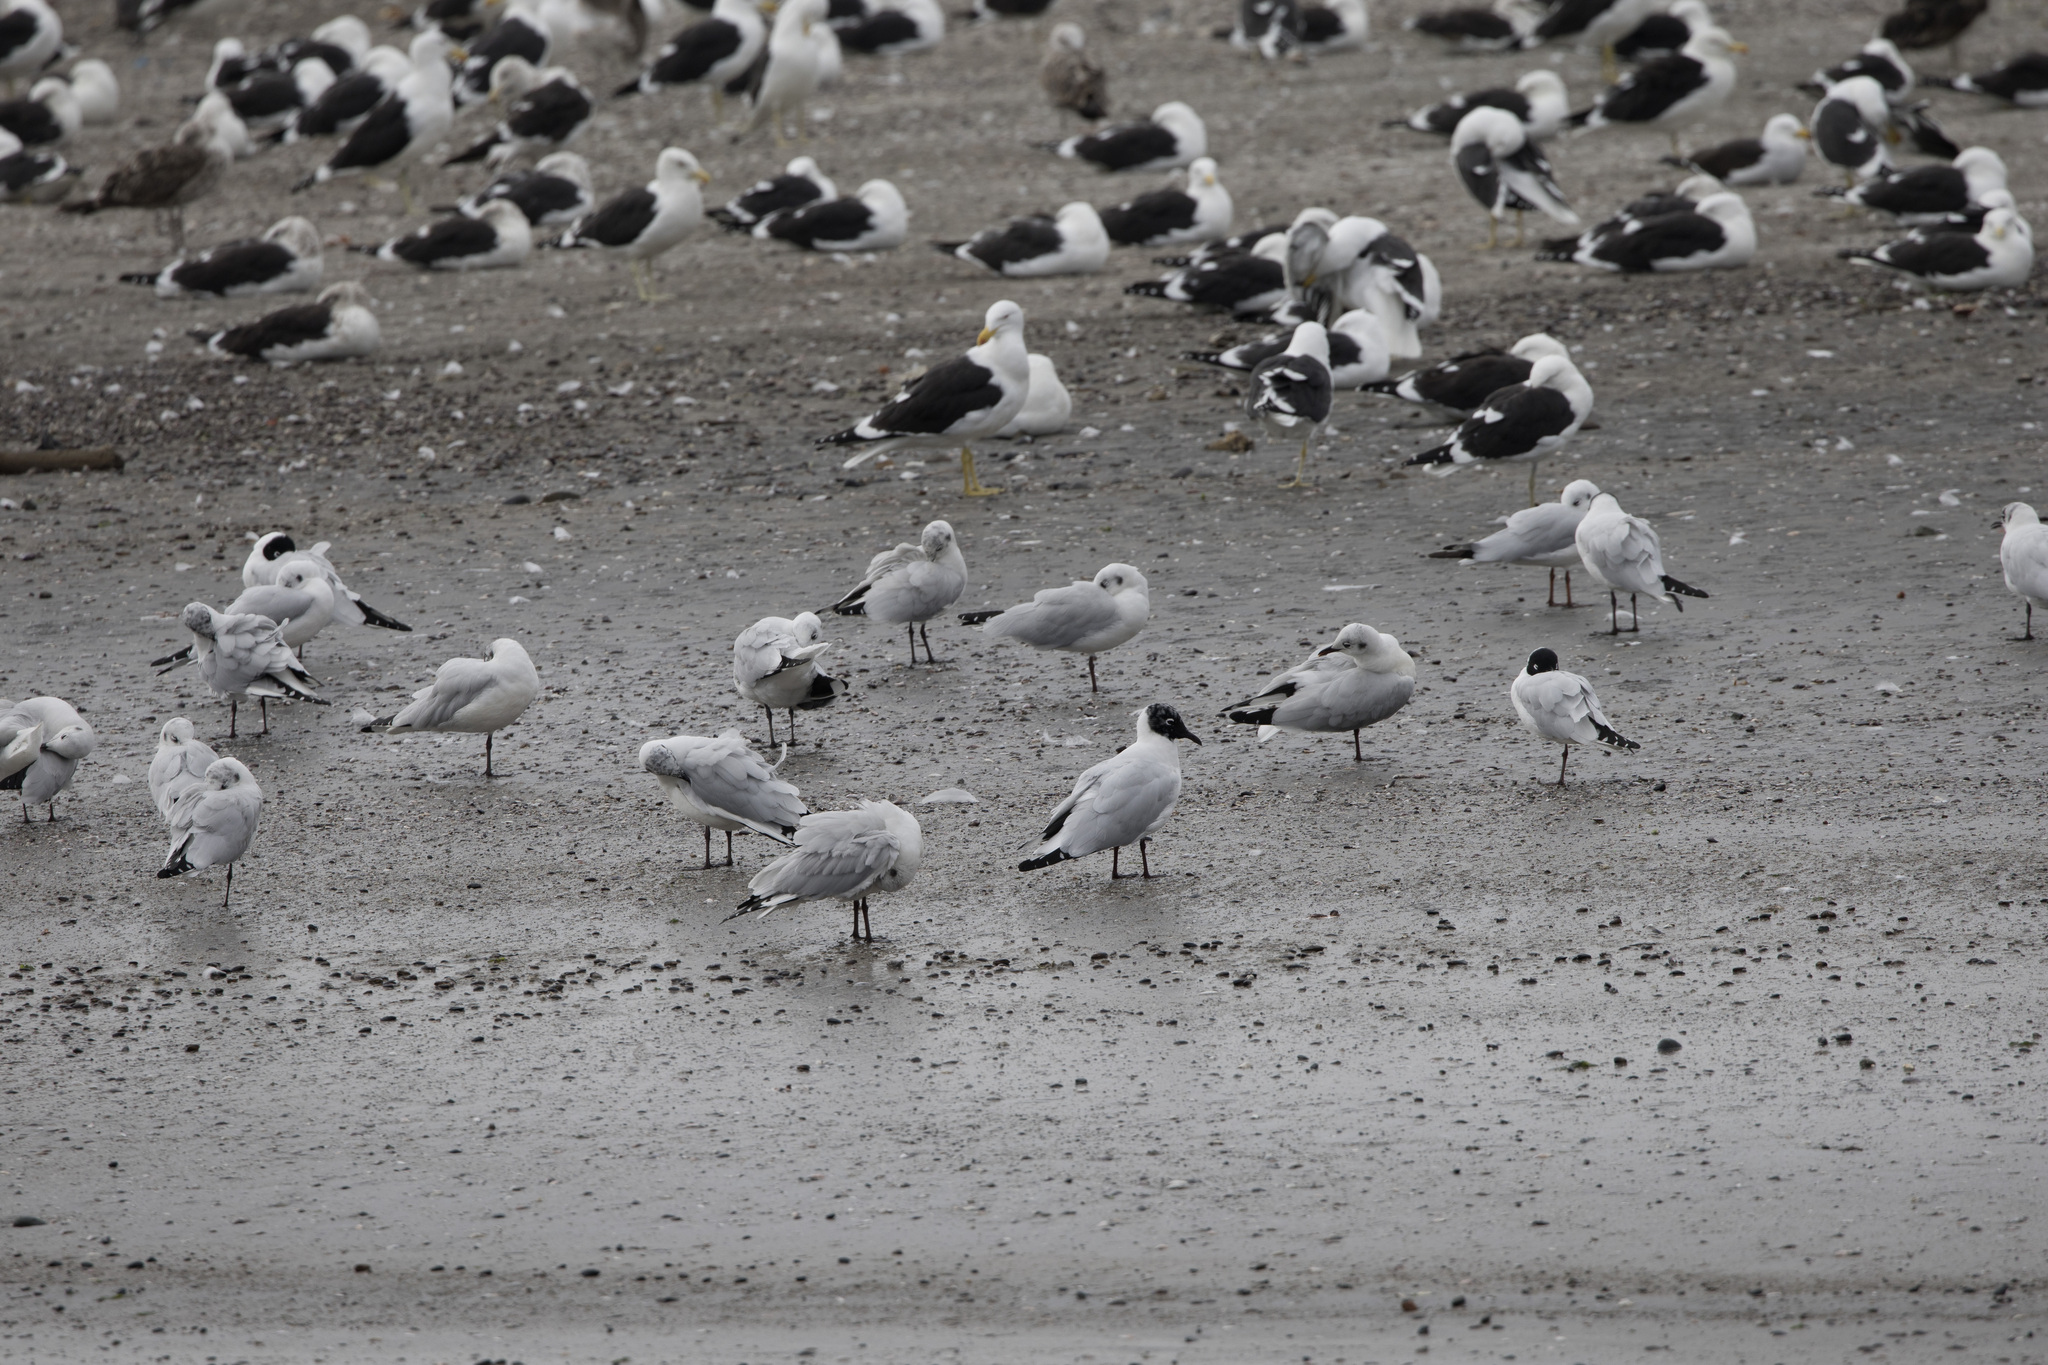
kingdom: Animalia
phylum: Chordata
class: Aves
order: Charadriiformes
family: Laridae
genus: Chroicocephalus
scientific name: Chroicocephalus serranus
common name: Andean gull
